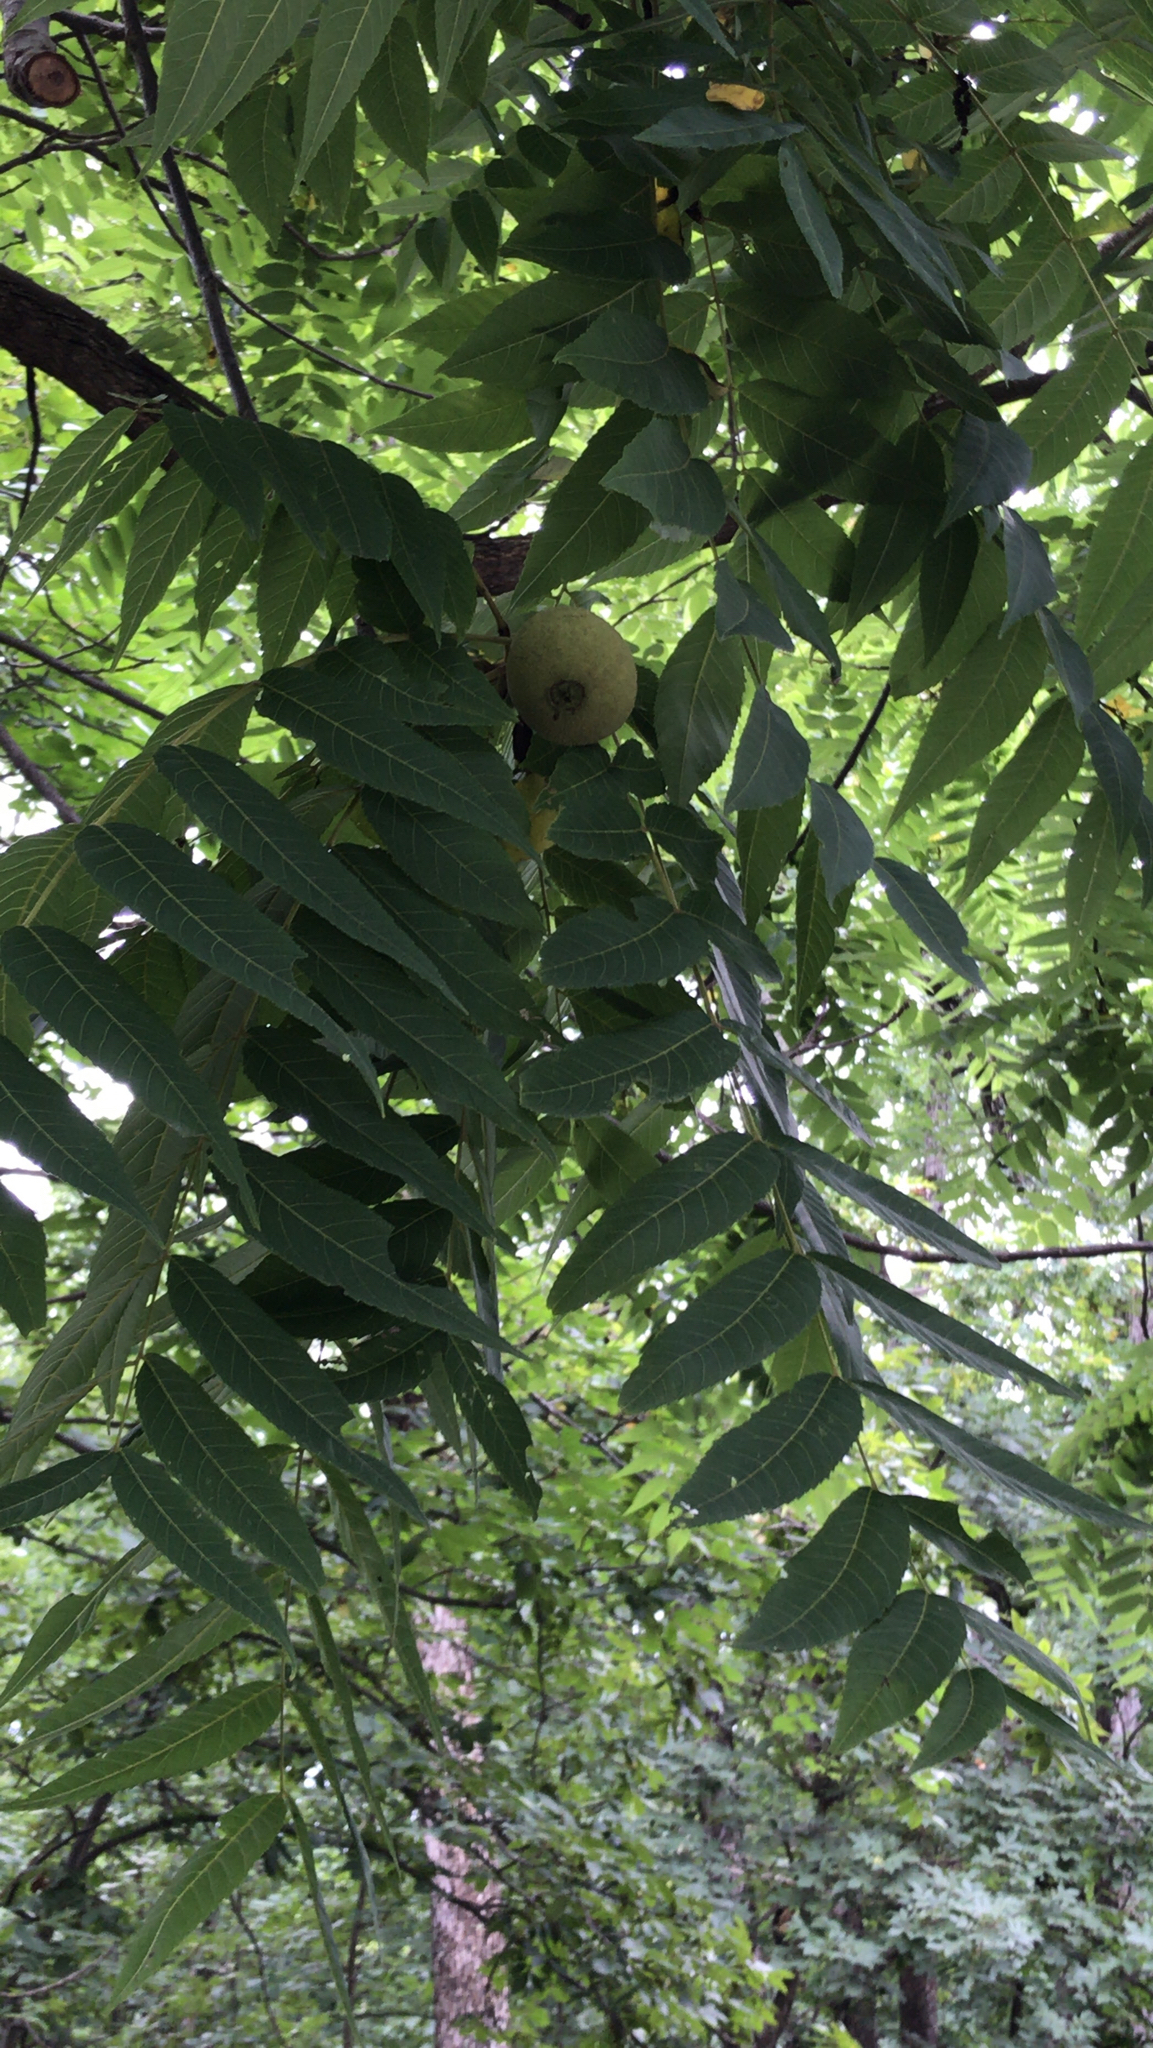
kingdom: Plantae
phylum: Tracheophyta
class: Magnoliopsida
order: Fagales
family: Juglandaceae
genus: Juglans
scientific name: Juglans nigra
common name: Black walnut
